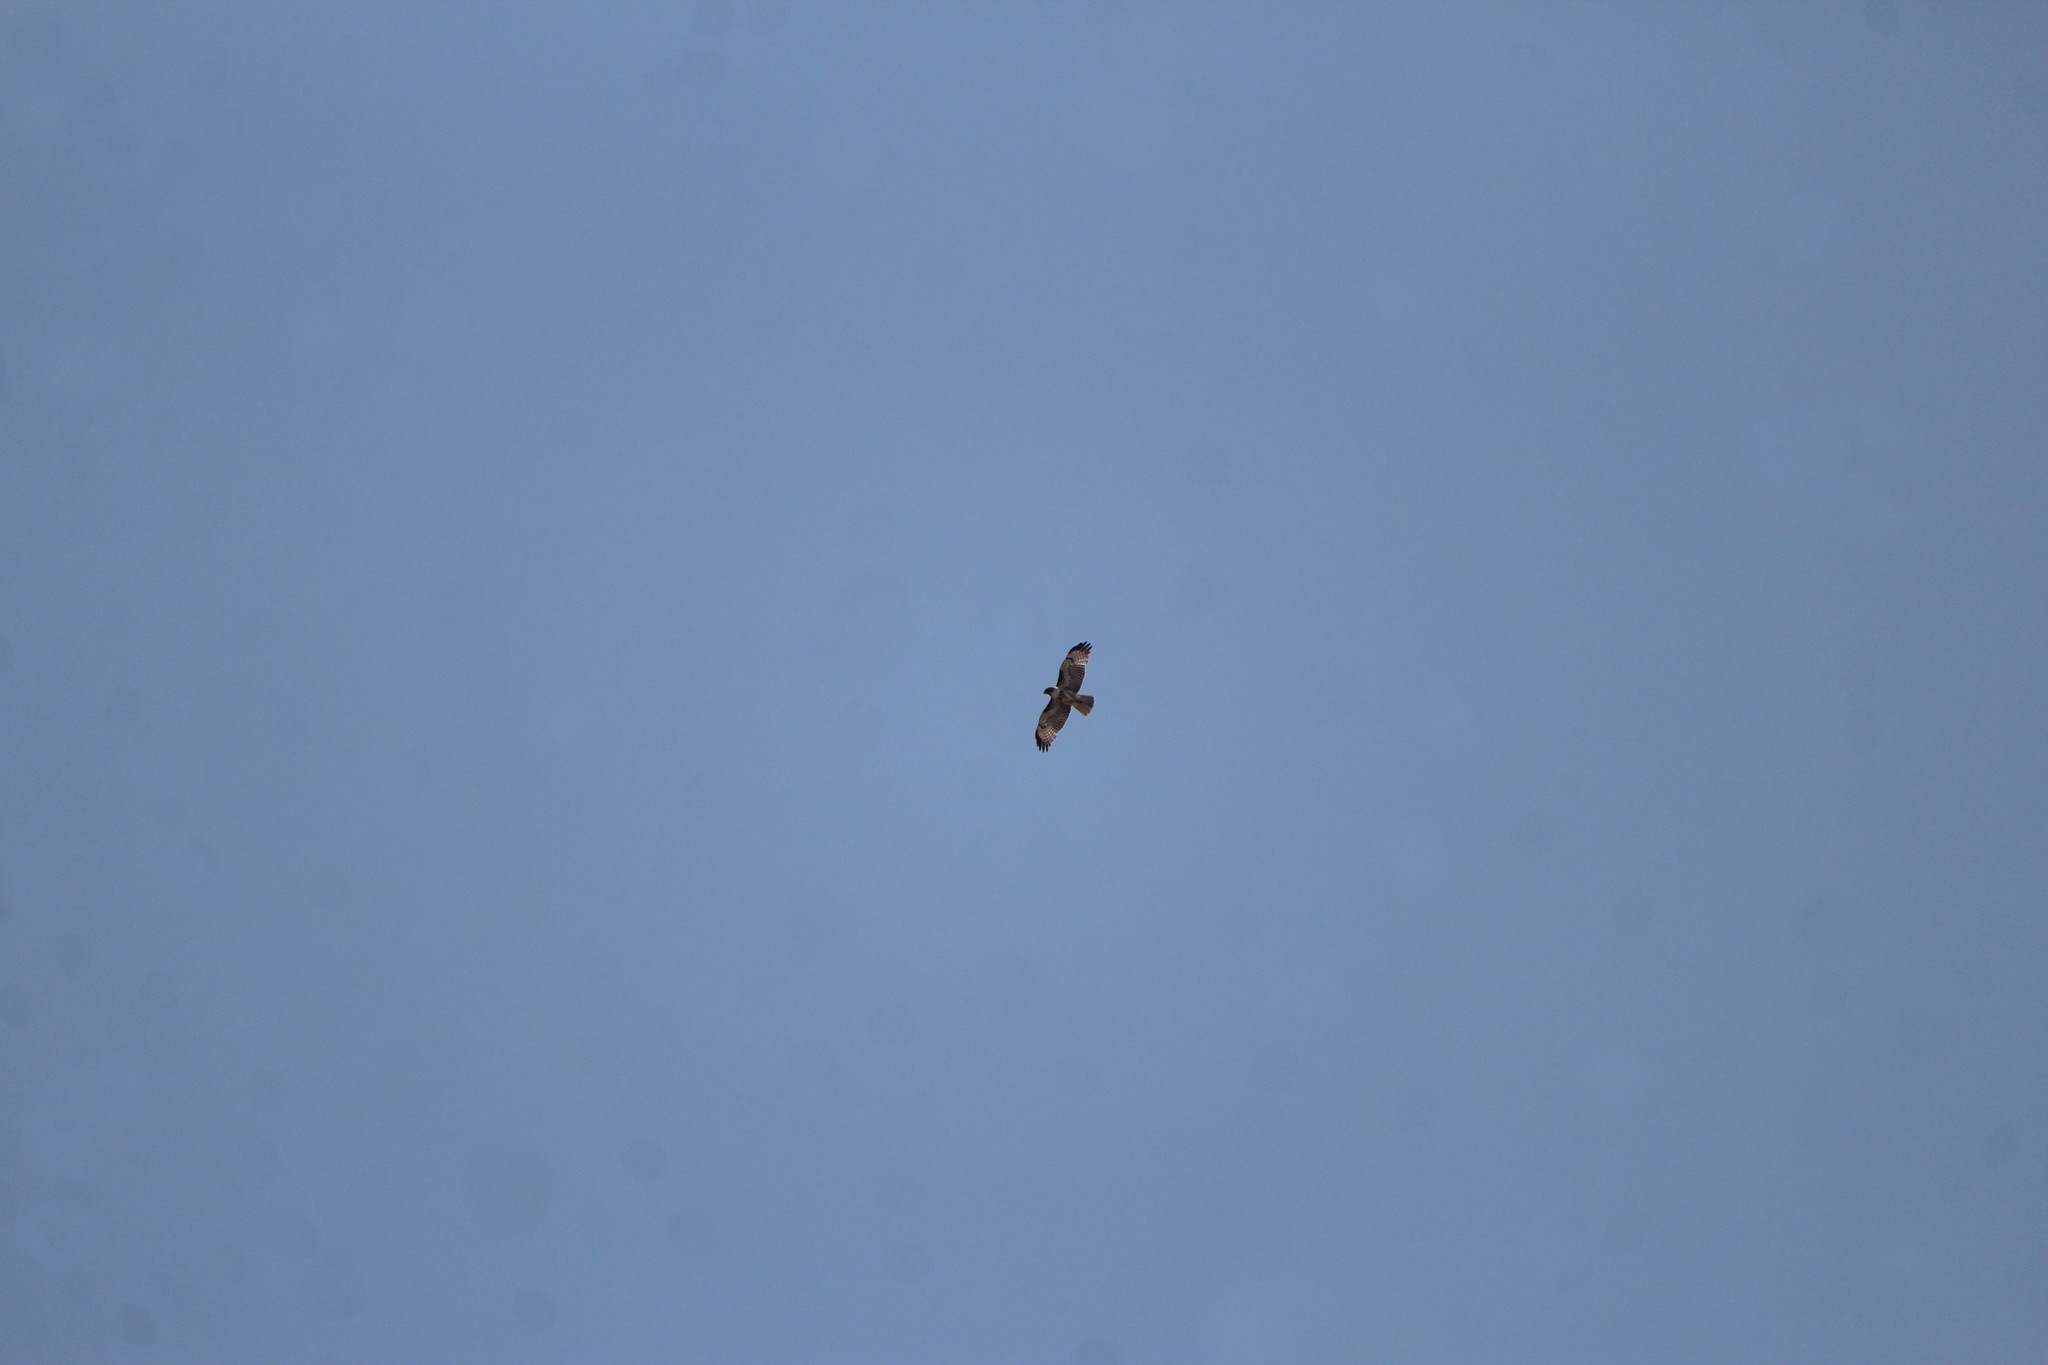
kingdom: Animalia
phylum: Chordata
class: Aves
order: Accipitriformes
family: Accipitridae
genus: Buteo
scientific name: Buteo jamaicensis
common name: Red-tailed hawk
